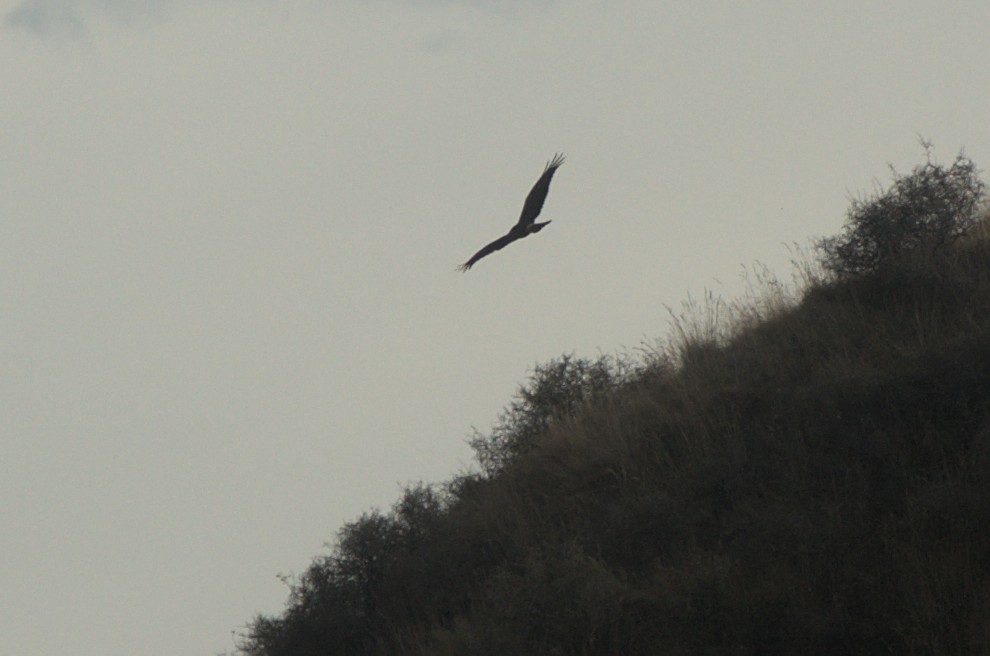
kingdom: Animalia
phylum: Chordata
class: Aves
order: Accipitriformes
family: Accipitridae
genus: Circus
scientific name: Circus approximans
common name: Swamp harrier
